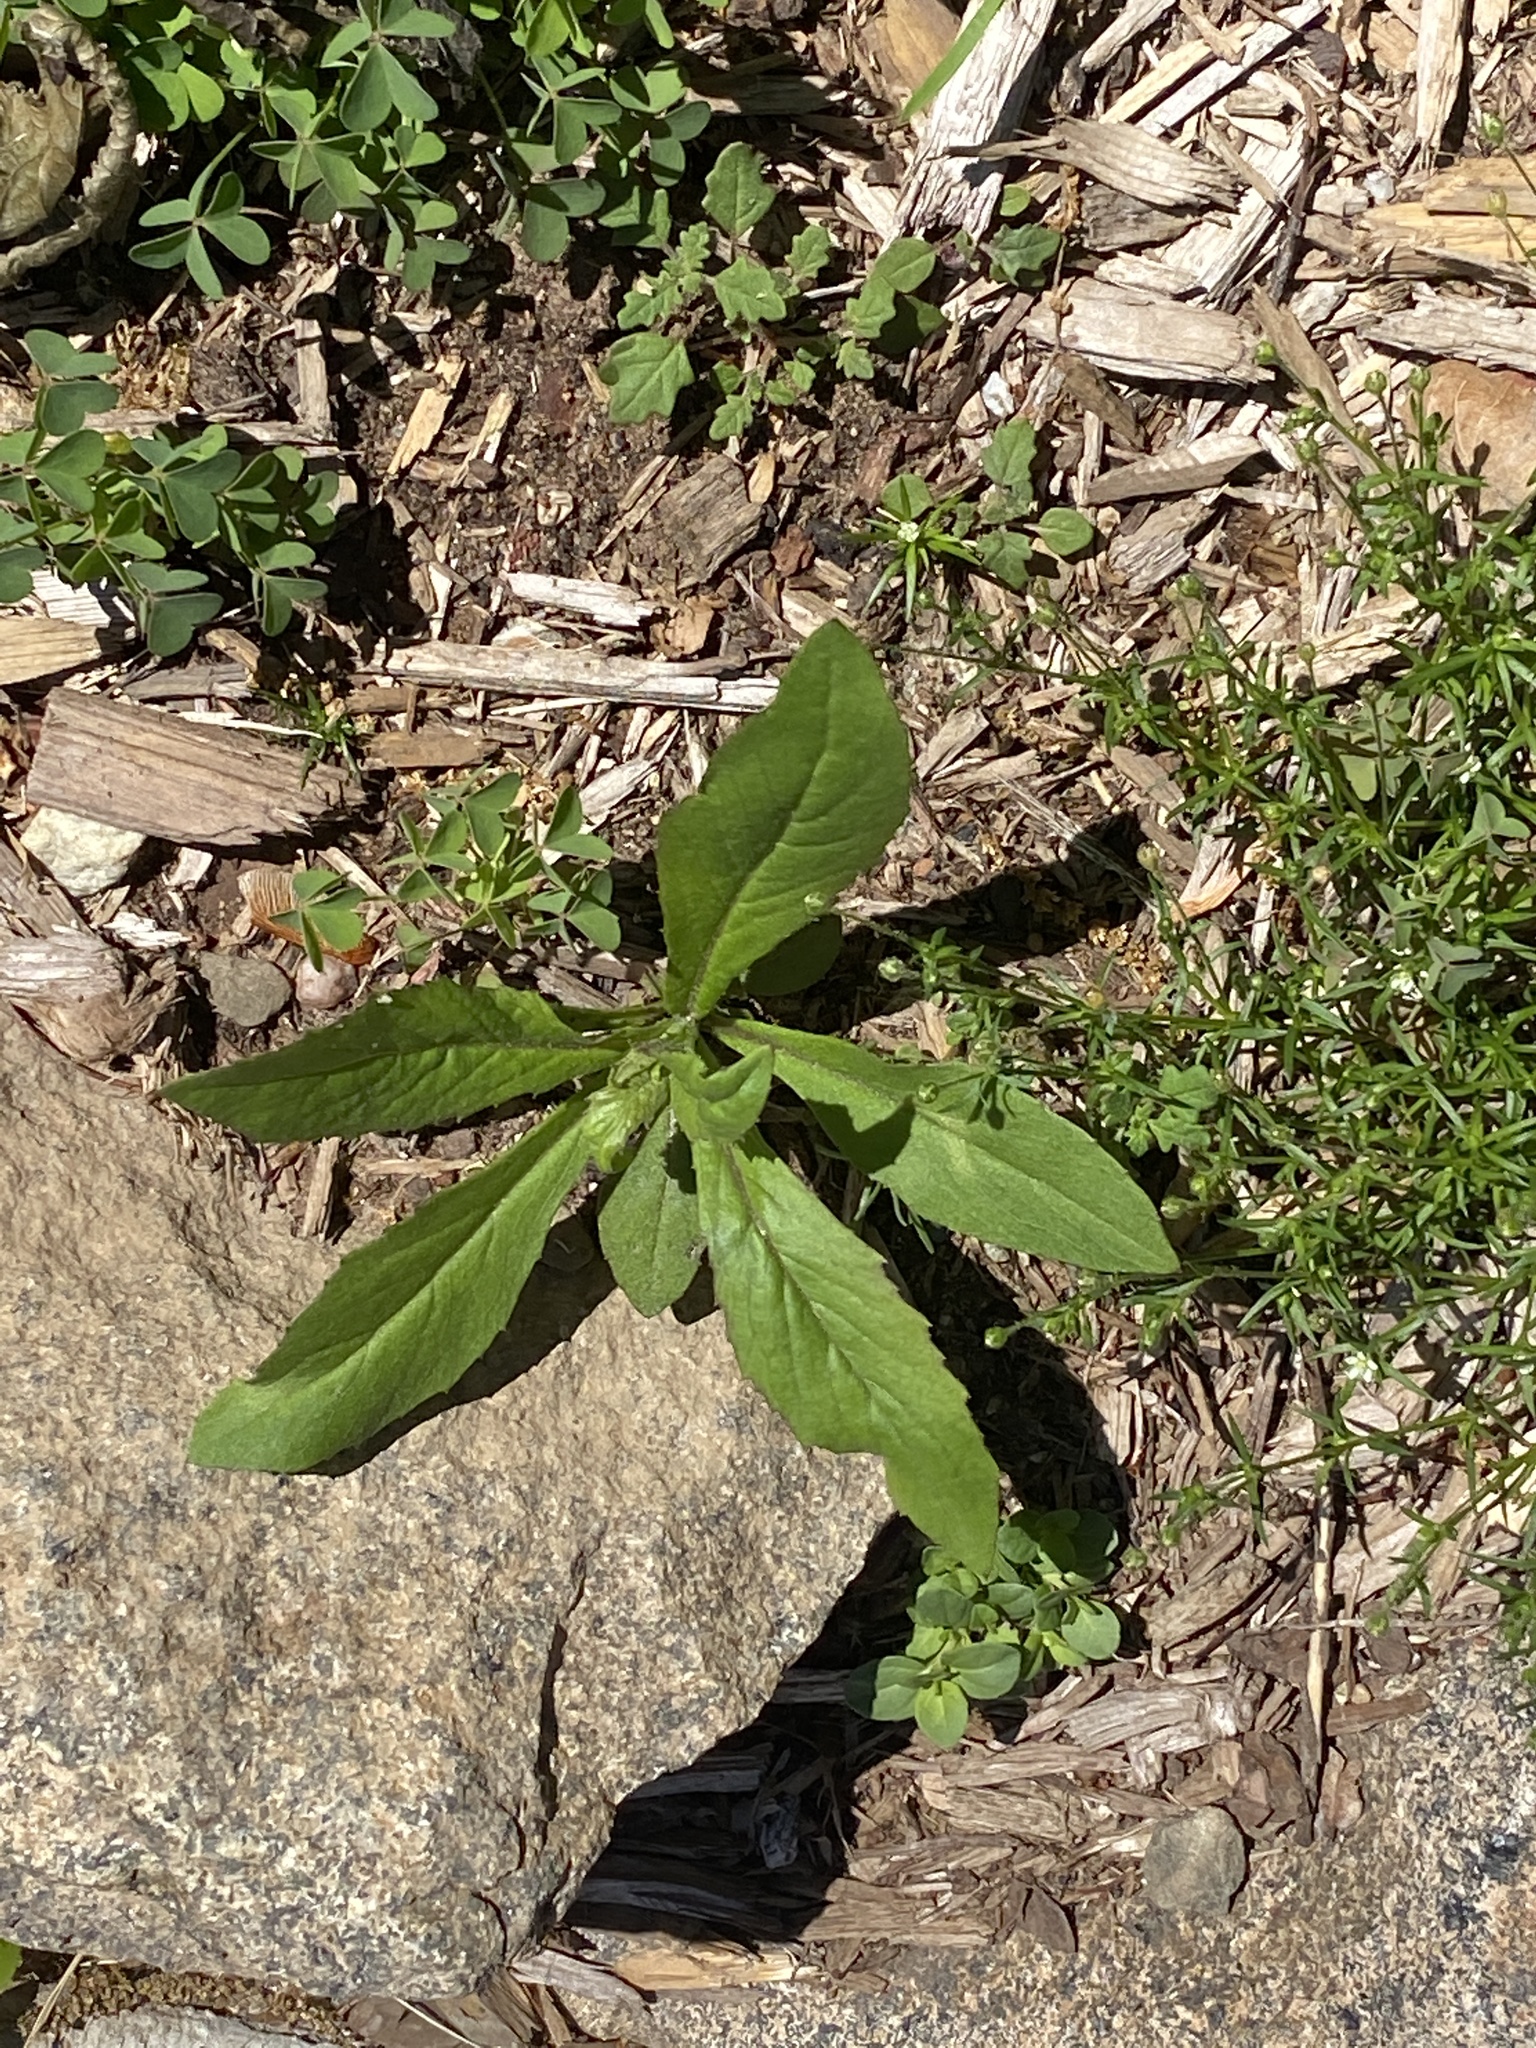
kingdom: Plantae
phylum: Tracheophyta
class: Magnoliopsida
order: Asterales
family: Asteraceae
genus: Erechtites
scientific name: Erechtites hieraciifolius
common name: American burnweed
